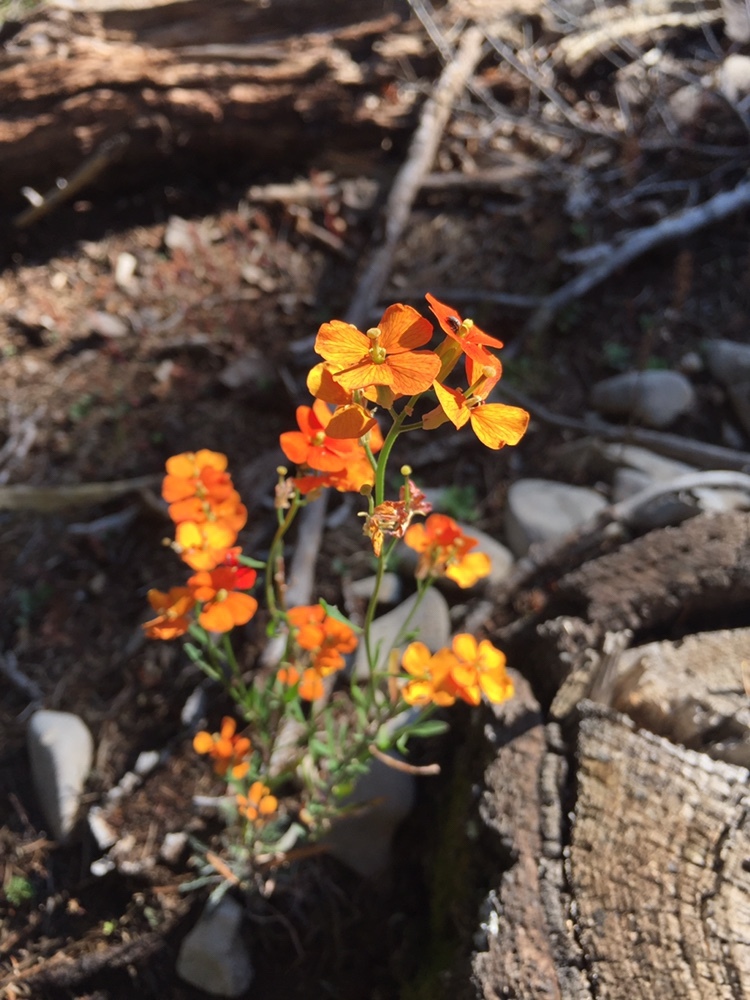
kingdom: Plantae
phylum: Tracheophyta
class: Magnoliopsida
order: Brassicales
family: Brassicaceae
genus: Erysimum
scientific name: Erysimum capitatum
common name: Western wallflower
